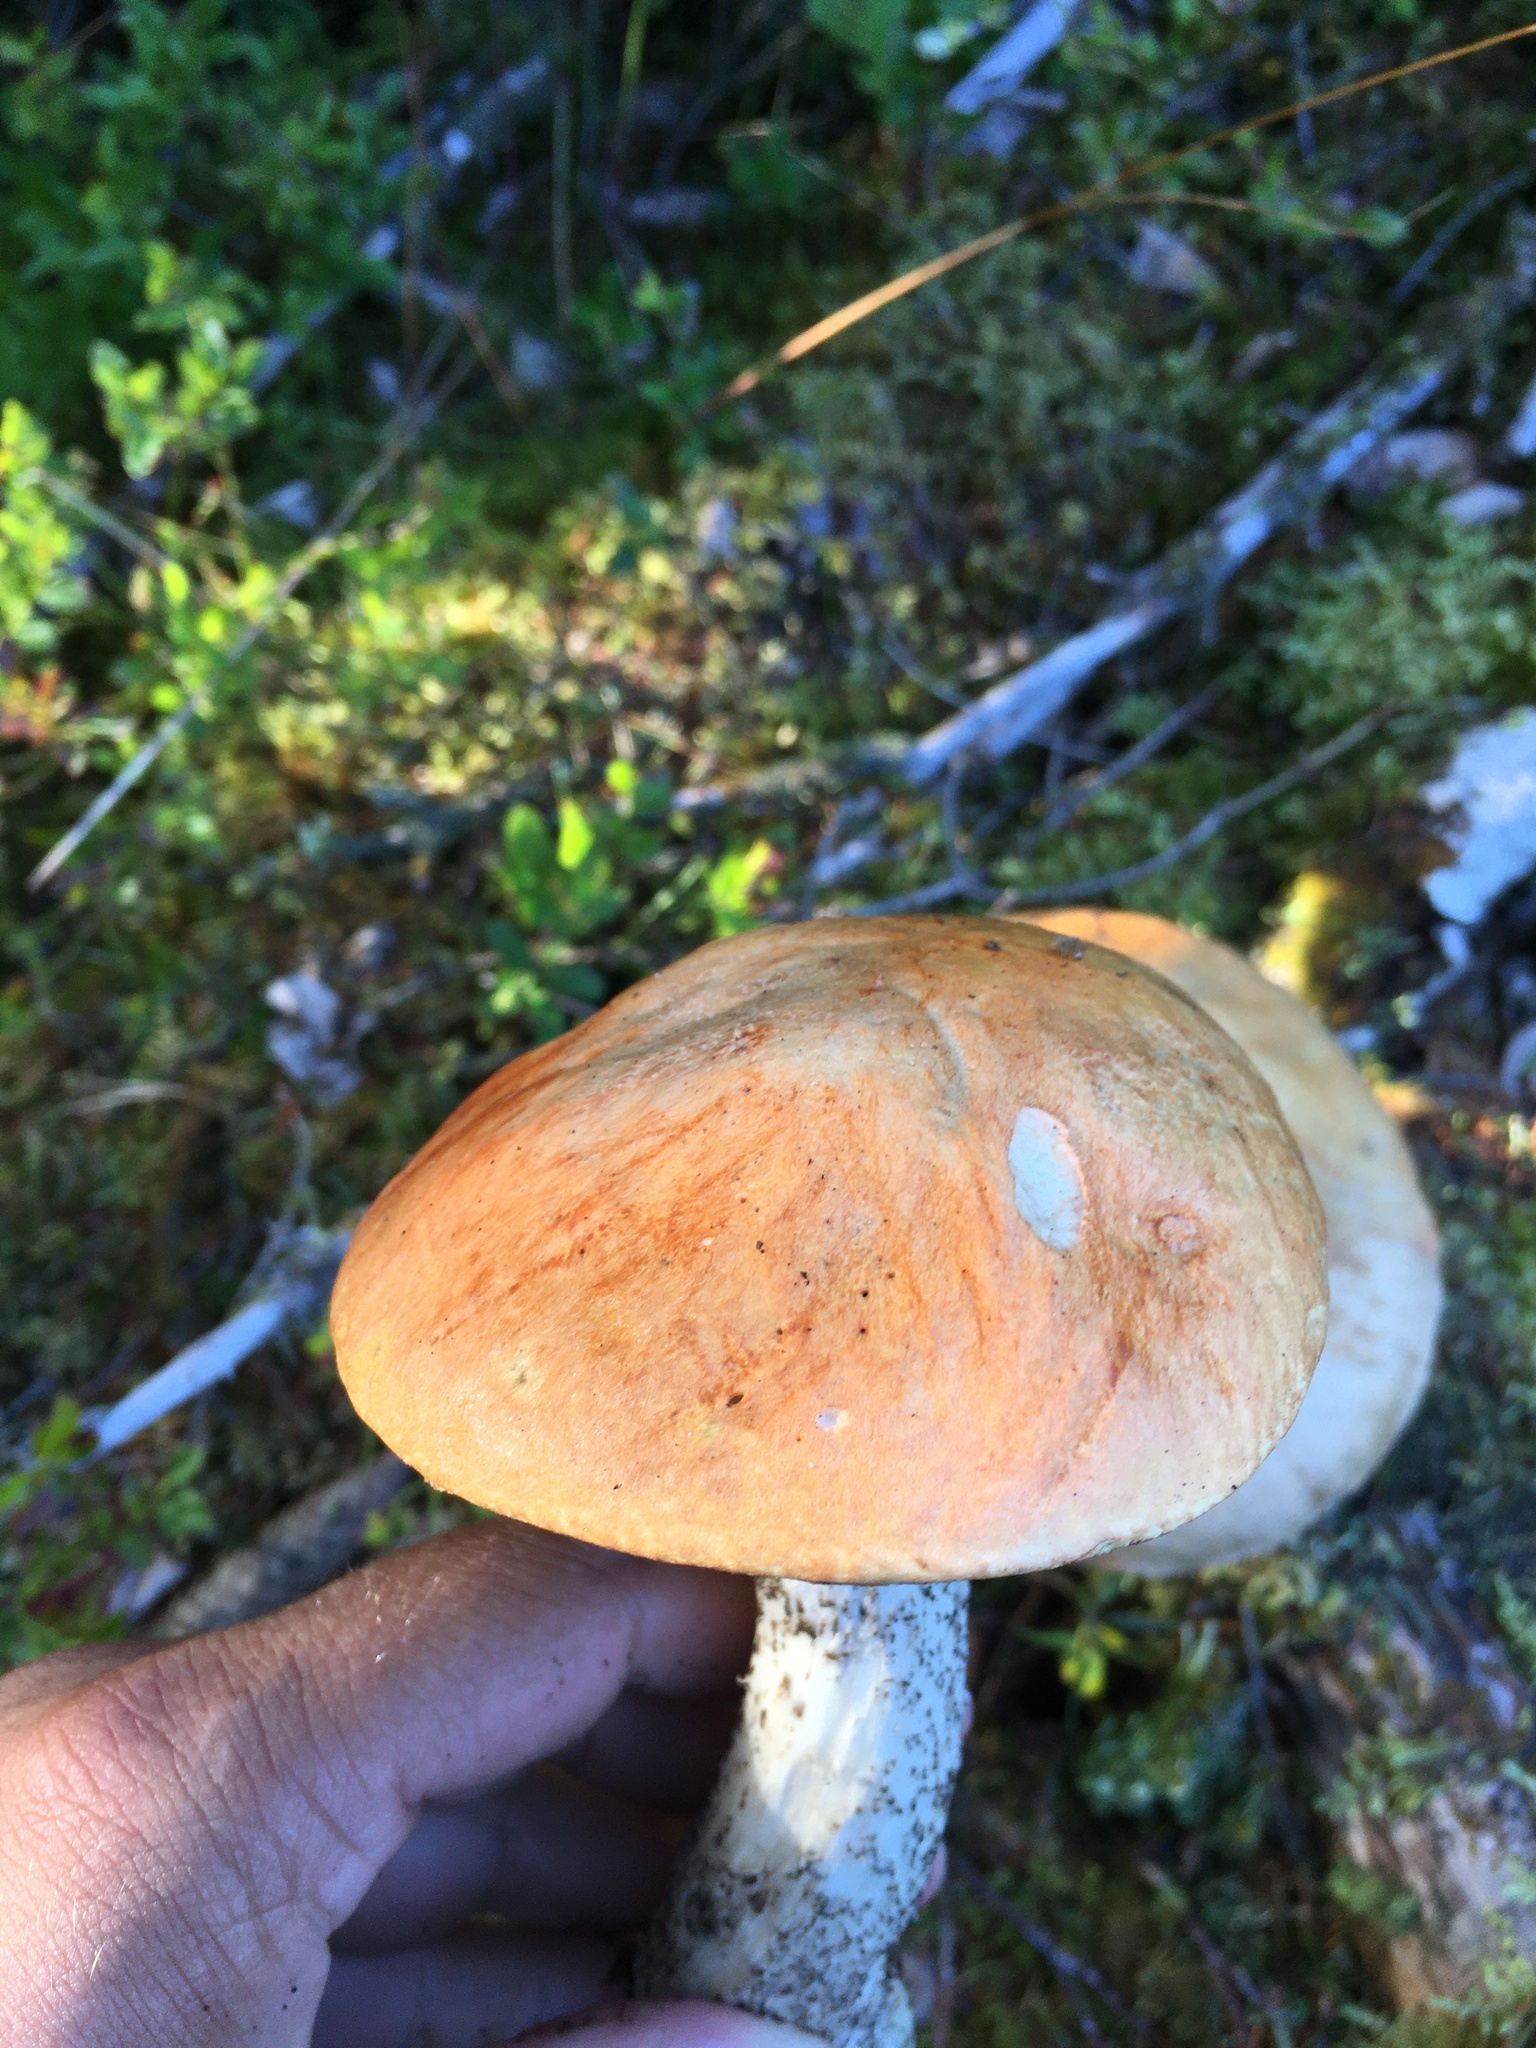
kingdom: Fungi
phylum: Basidiomycota
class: Agaricomycetes
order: Boletales
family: Boletaceae
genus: Leccinum
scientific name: Leccinum versipelle
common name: Orange birch bolete
